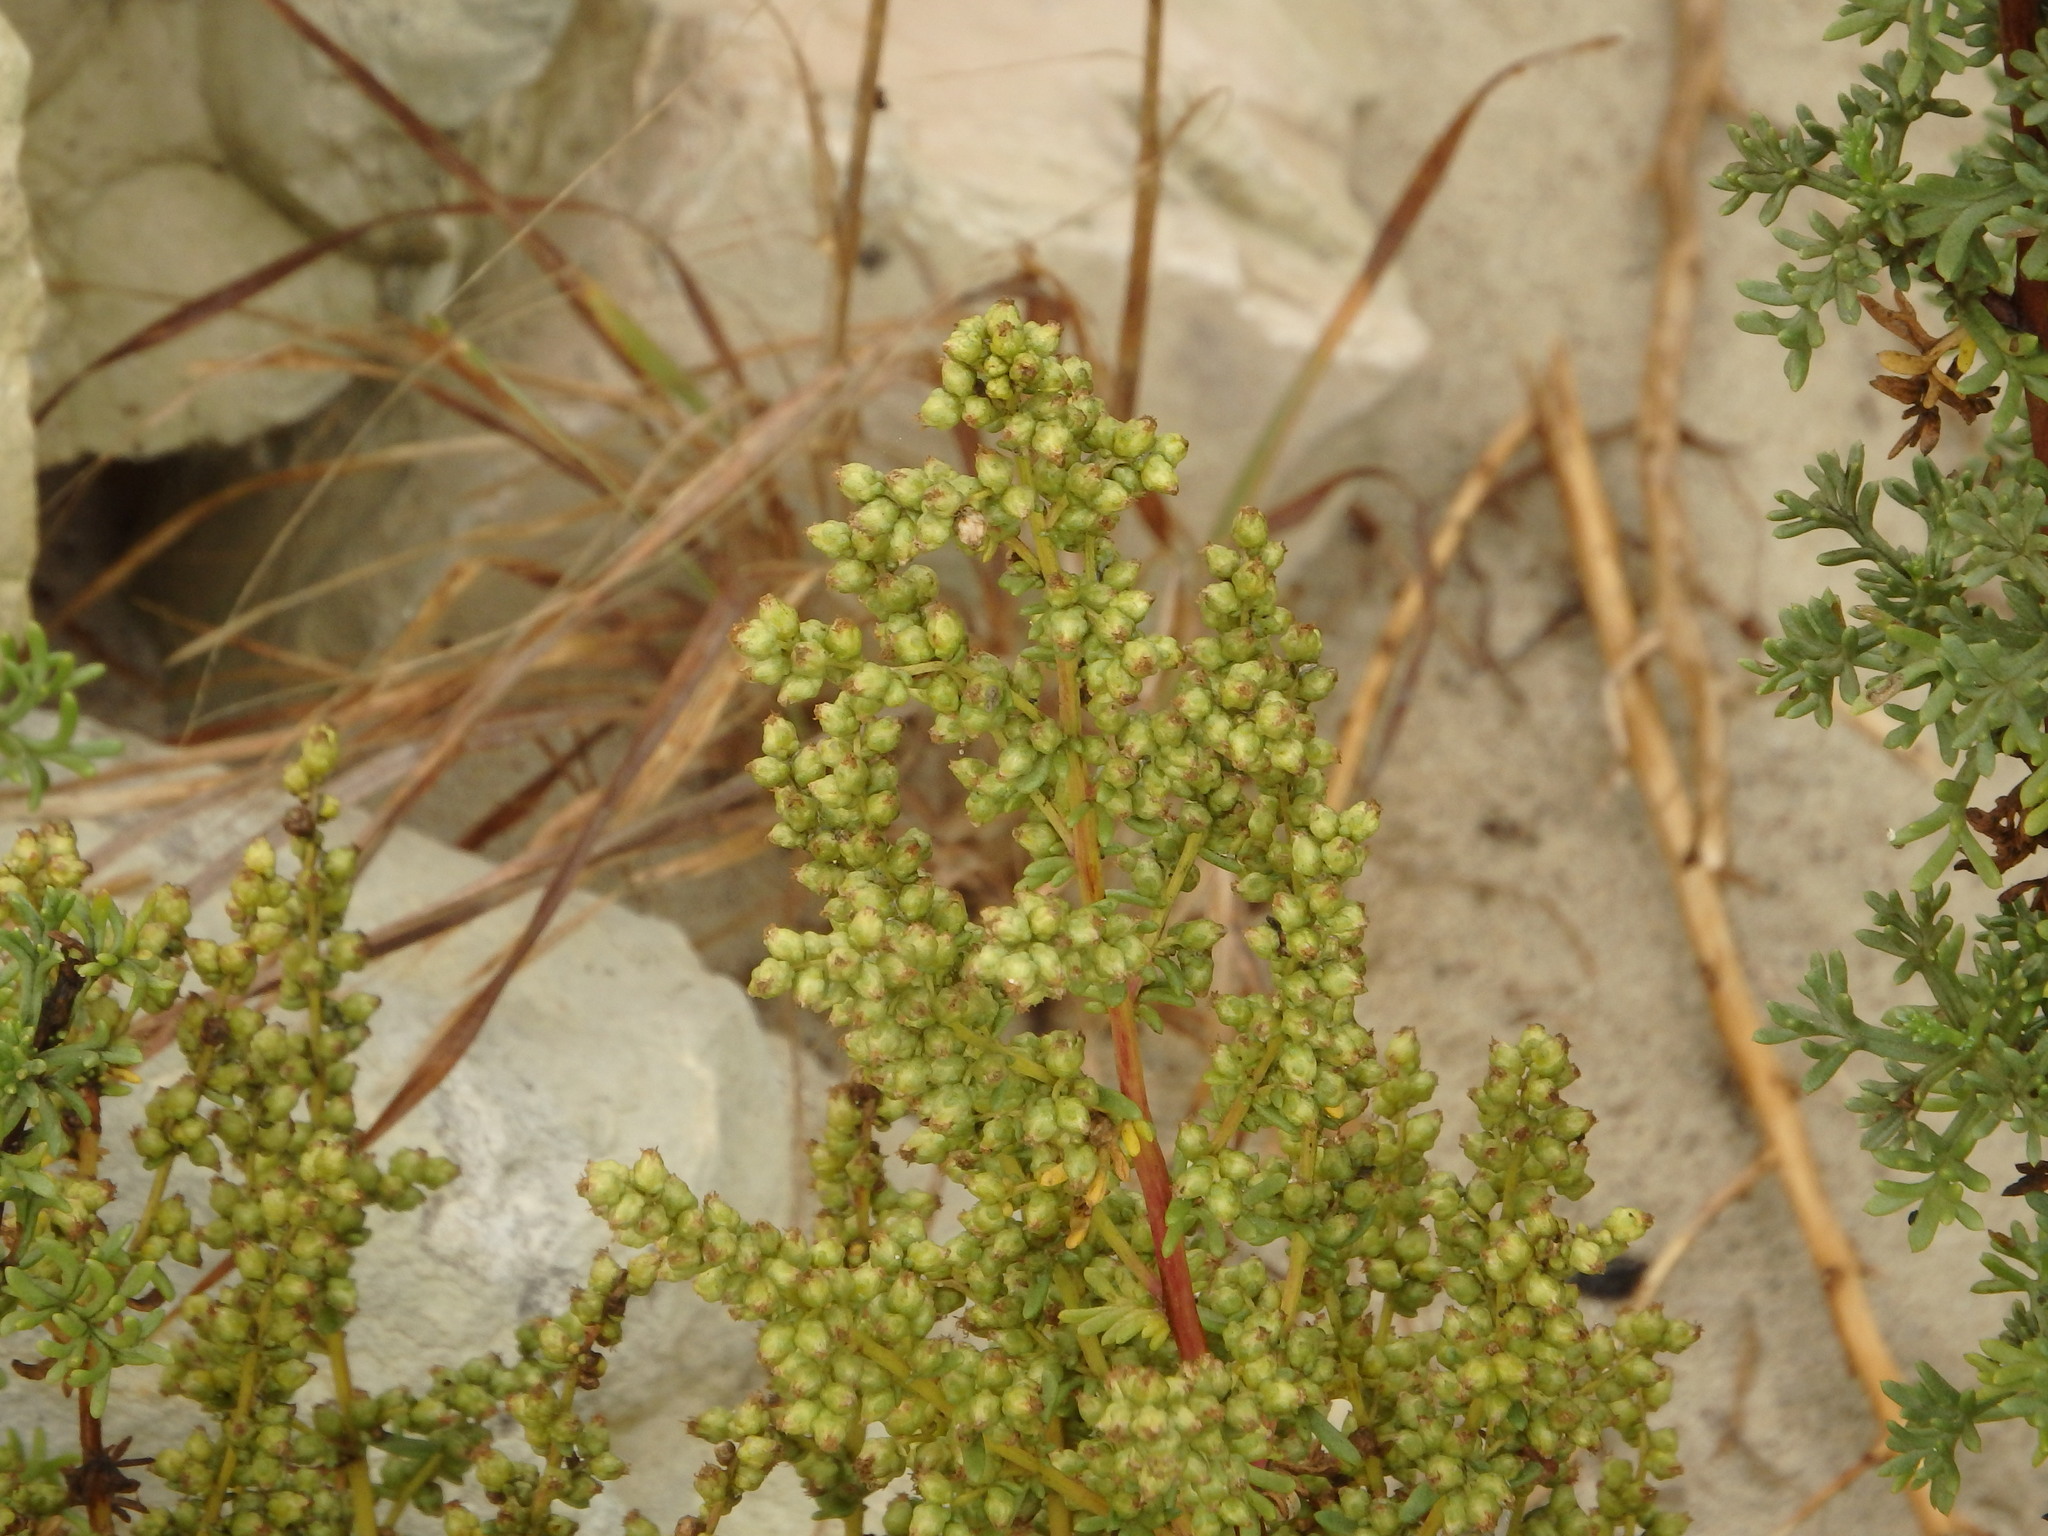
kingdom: Plantae
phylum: Tracheophyta
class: Magnoliopsida
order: Asterales
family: Asteraceae
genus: Artemisia
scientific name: Artemisia crithmifolia
